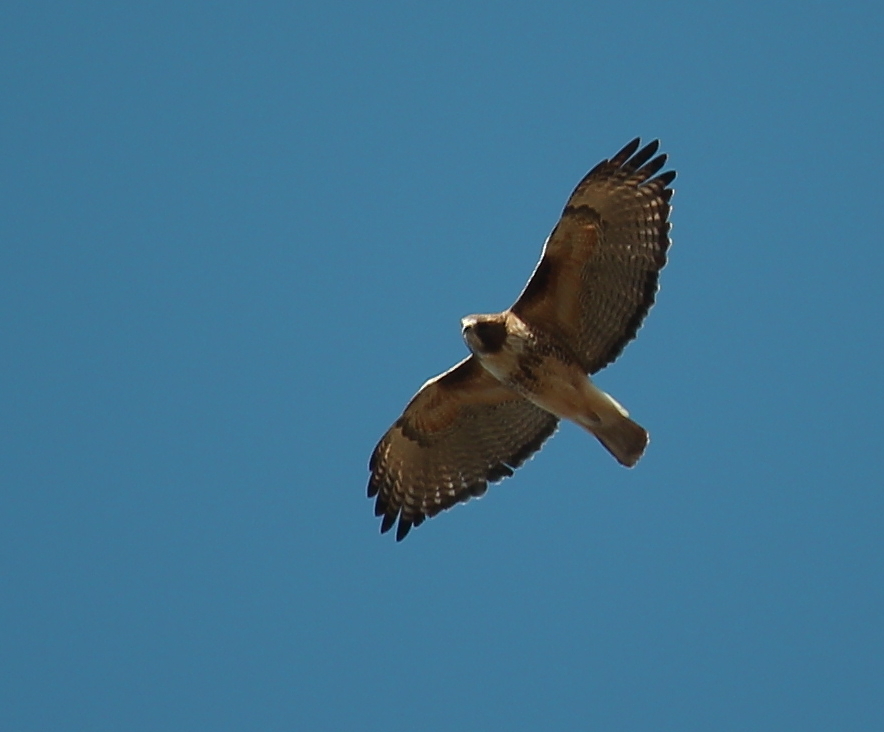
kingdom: Animalia
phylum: Chordata
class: Aves
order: Accipitriformes
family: Accipitridae
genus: Buteo
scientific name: Buteo jamaicensis
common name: Red-tailed hawk
